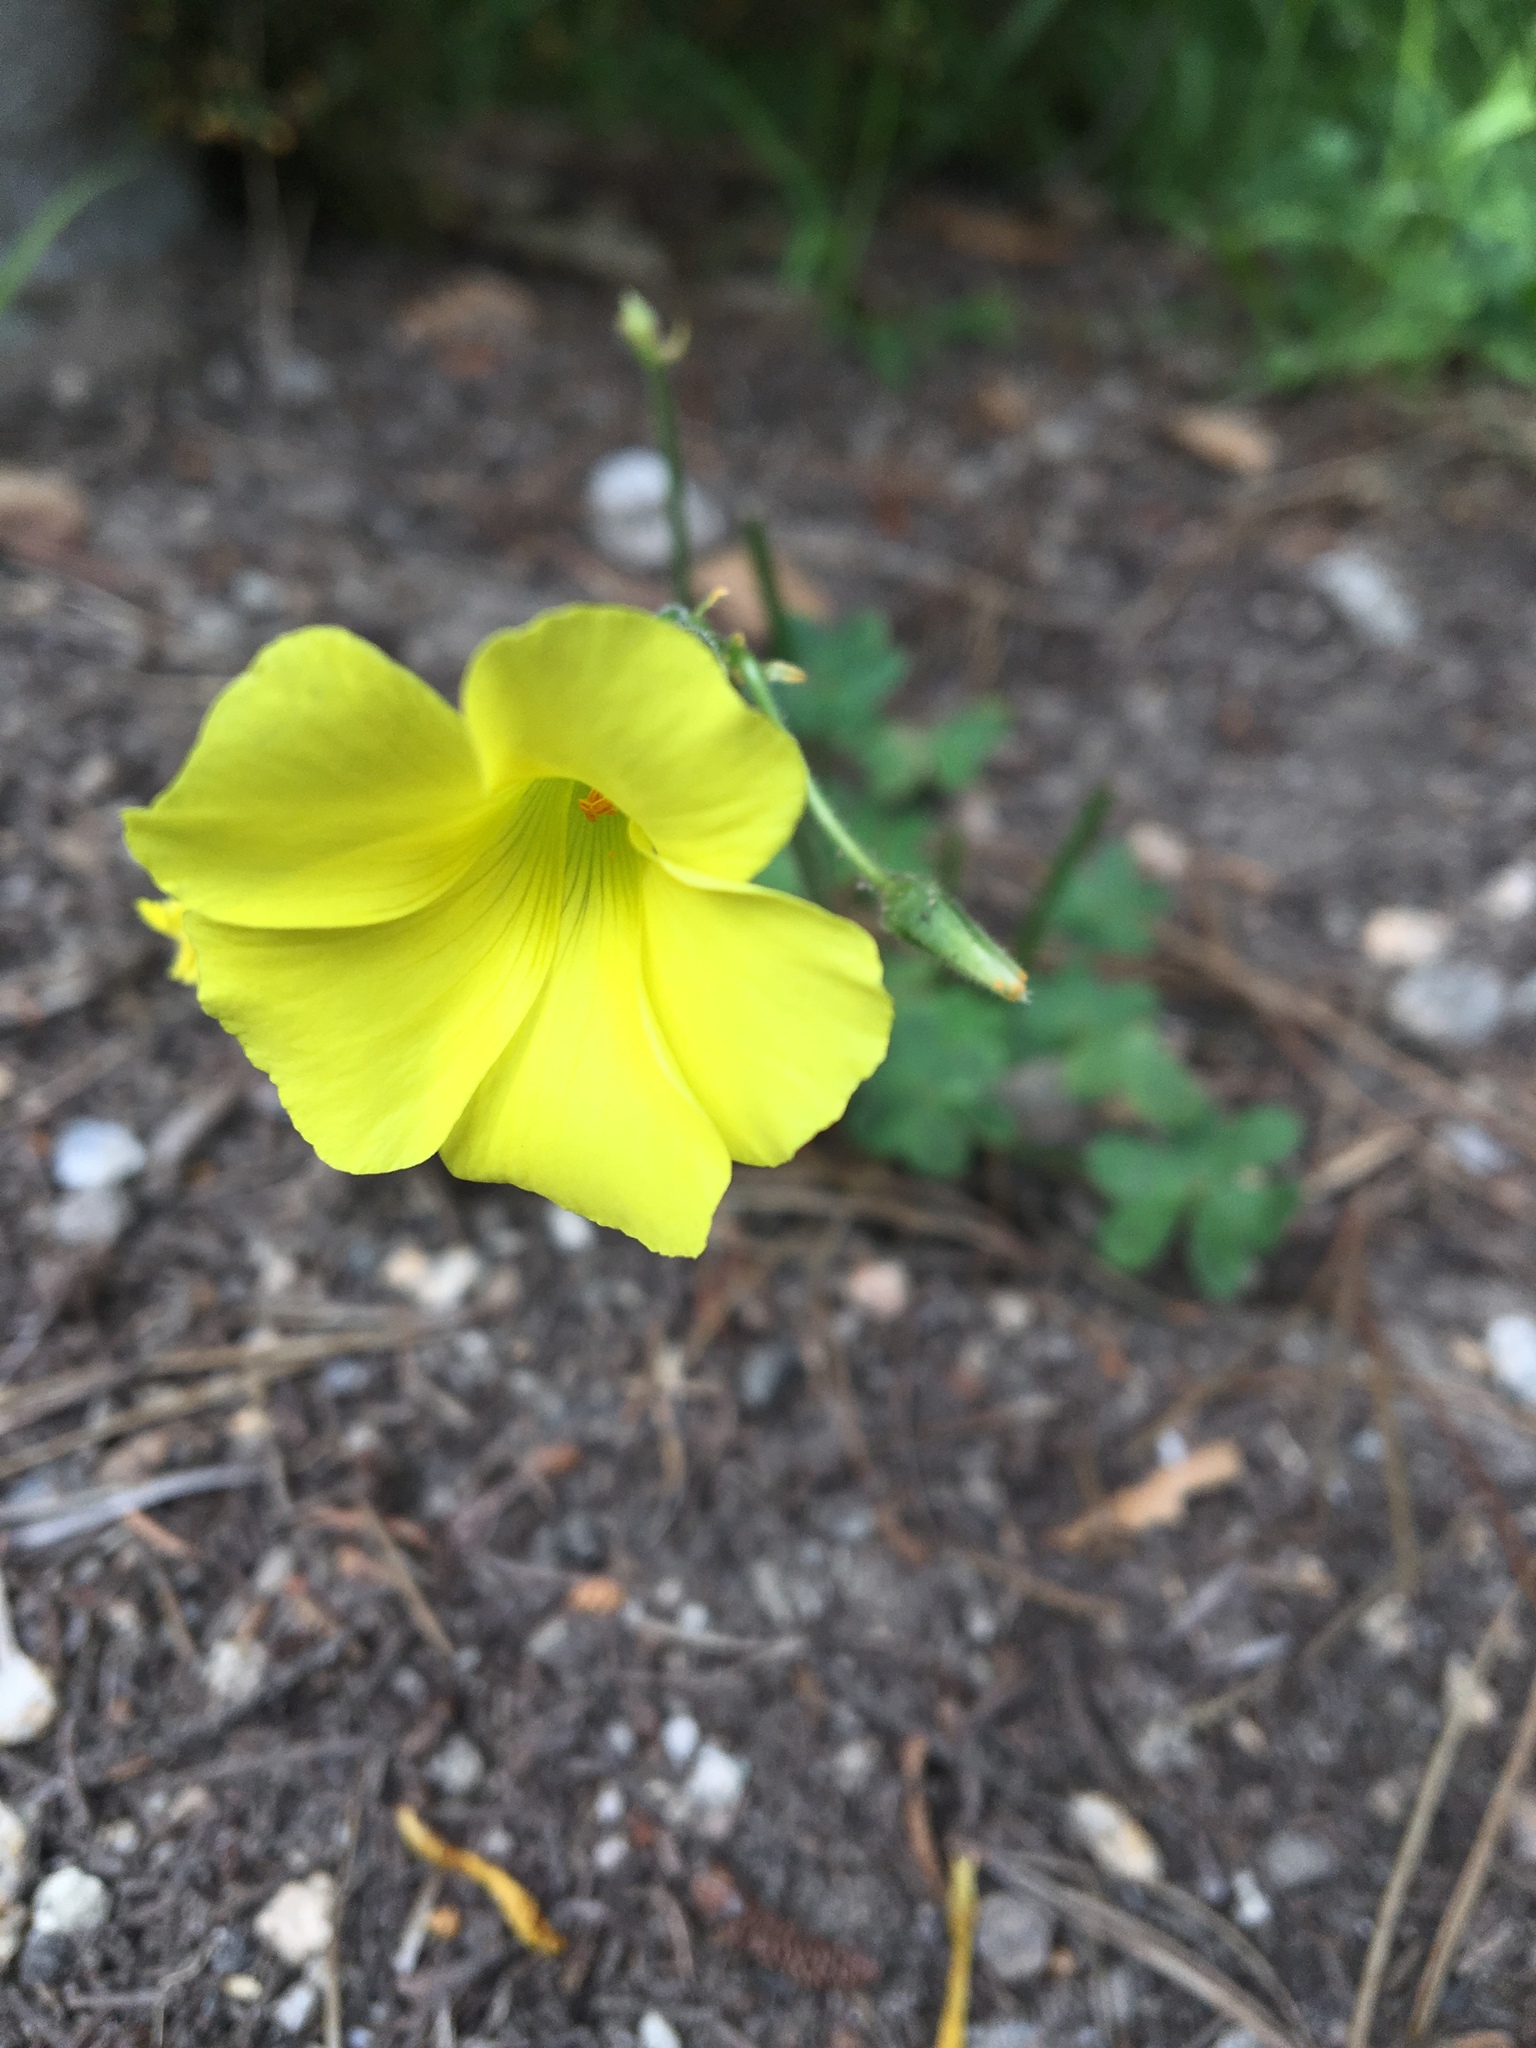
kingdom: Plantae
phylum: Tracheophyta
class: Magnoliopsida
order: Oxalidales
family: Oxalidaceae
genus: Oxalis
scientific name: Oxalis pes-caprae
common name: Bermuda-buttercup
